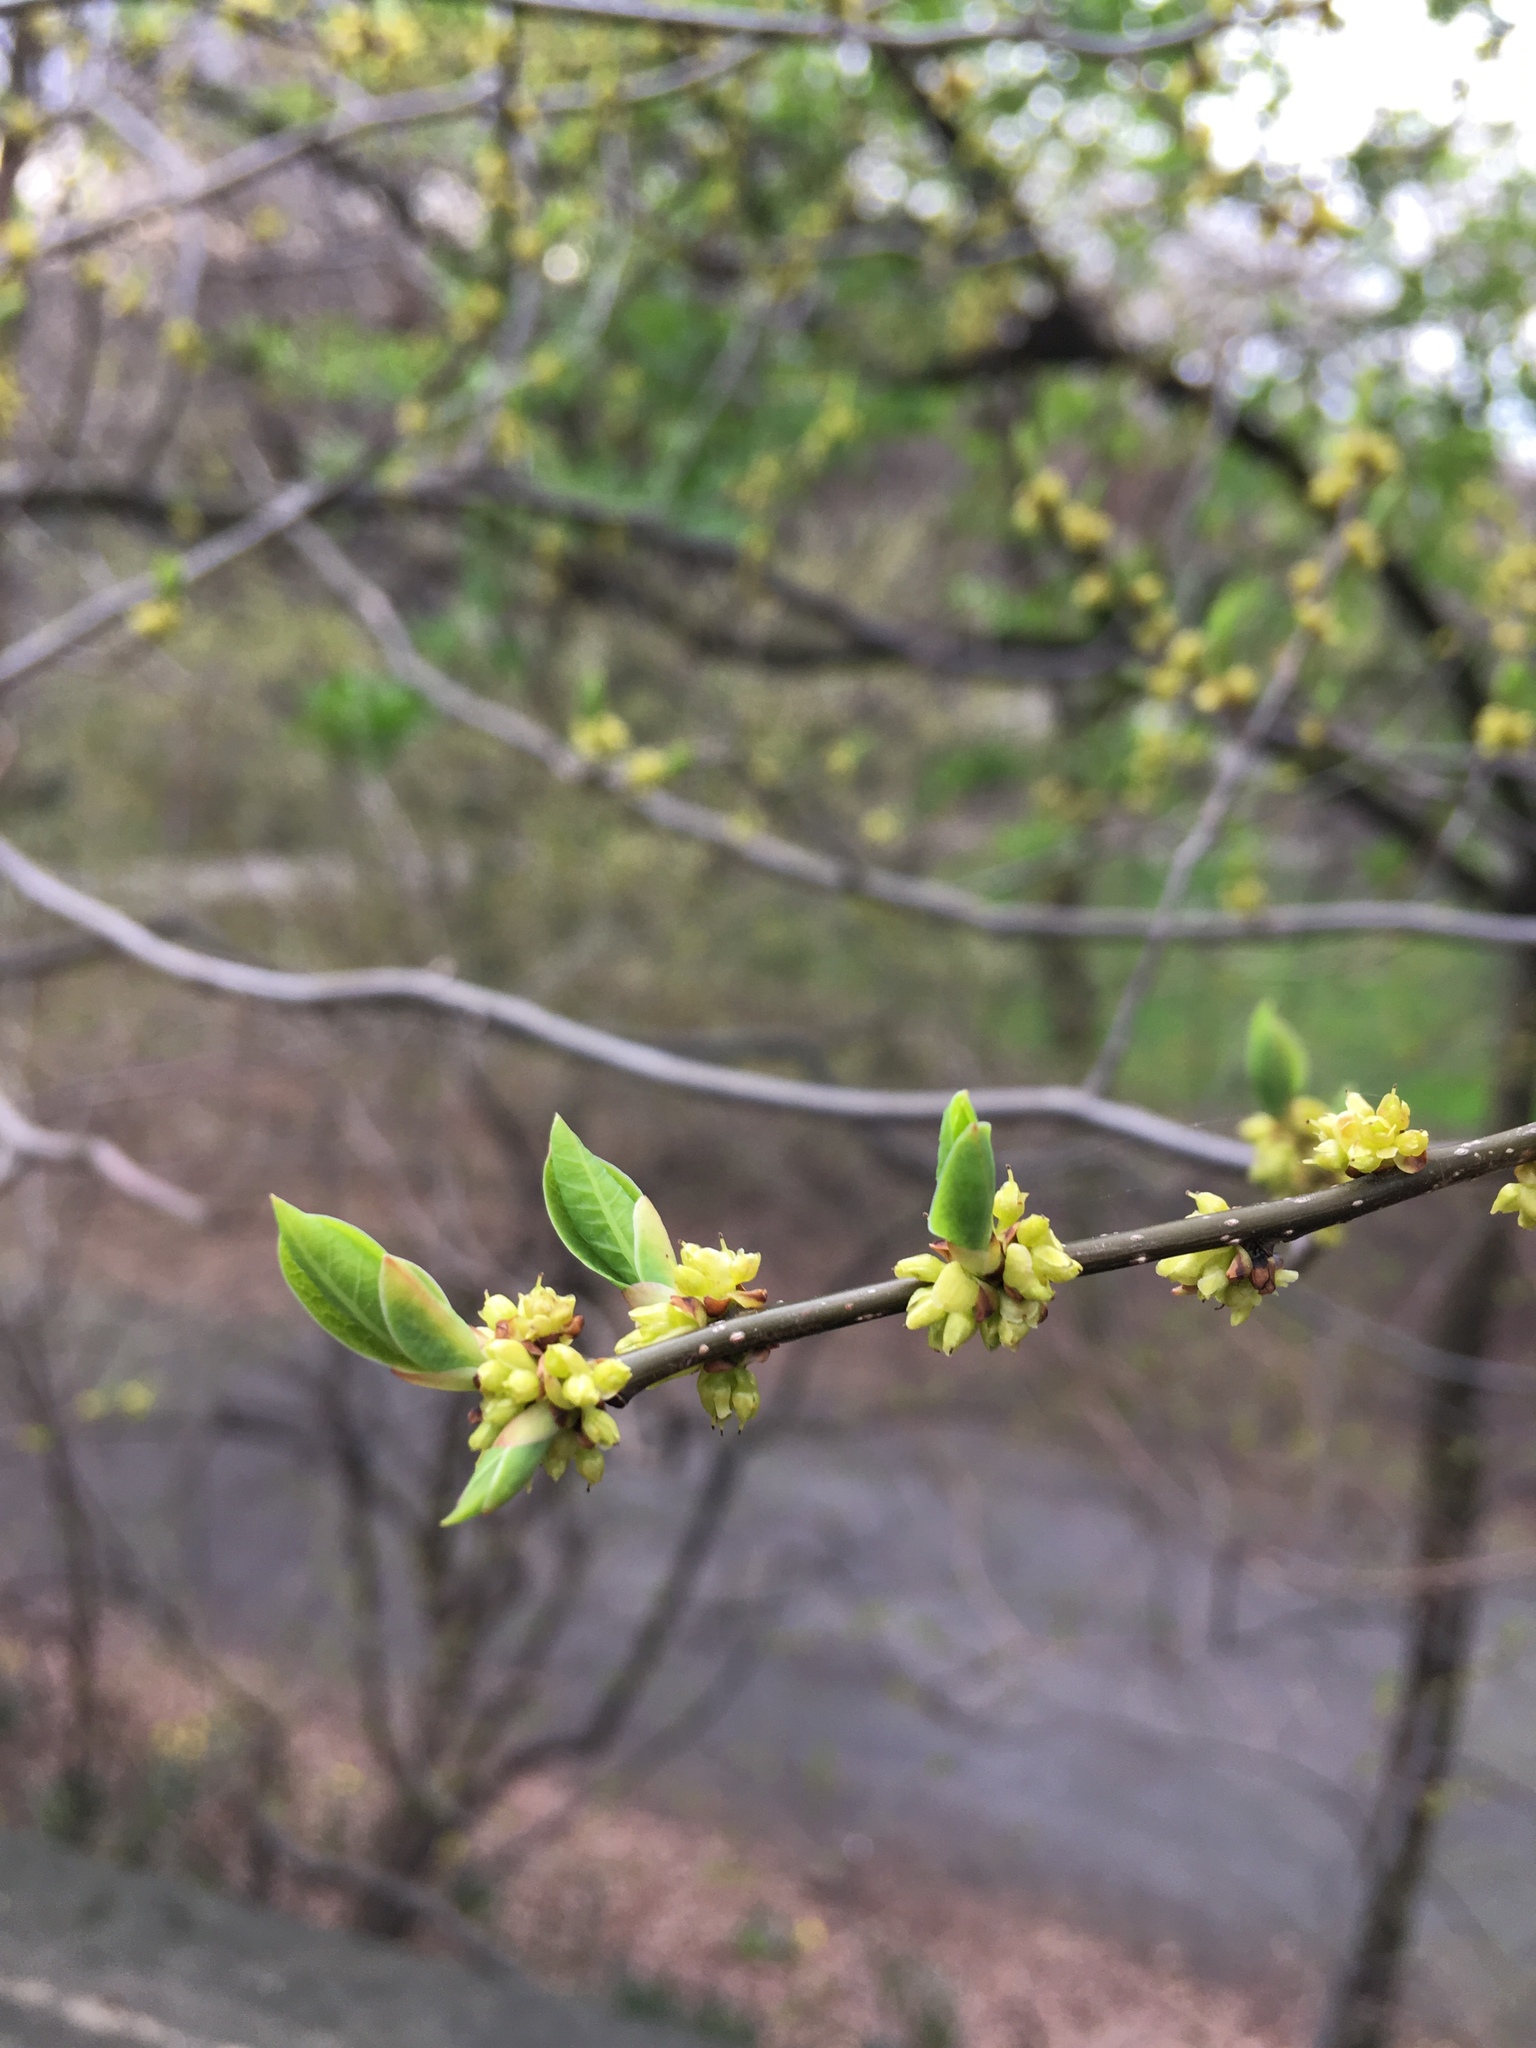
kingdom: Plantae
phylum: Tracheophyta
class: Magnoliopsida
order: Laurales
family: Lauraceae
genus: Lindera
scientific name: Lindera benzoin
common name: Spicebush
